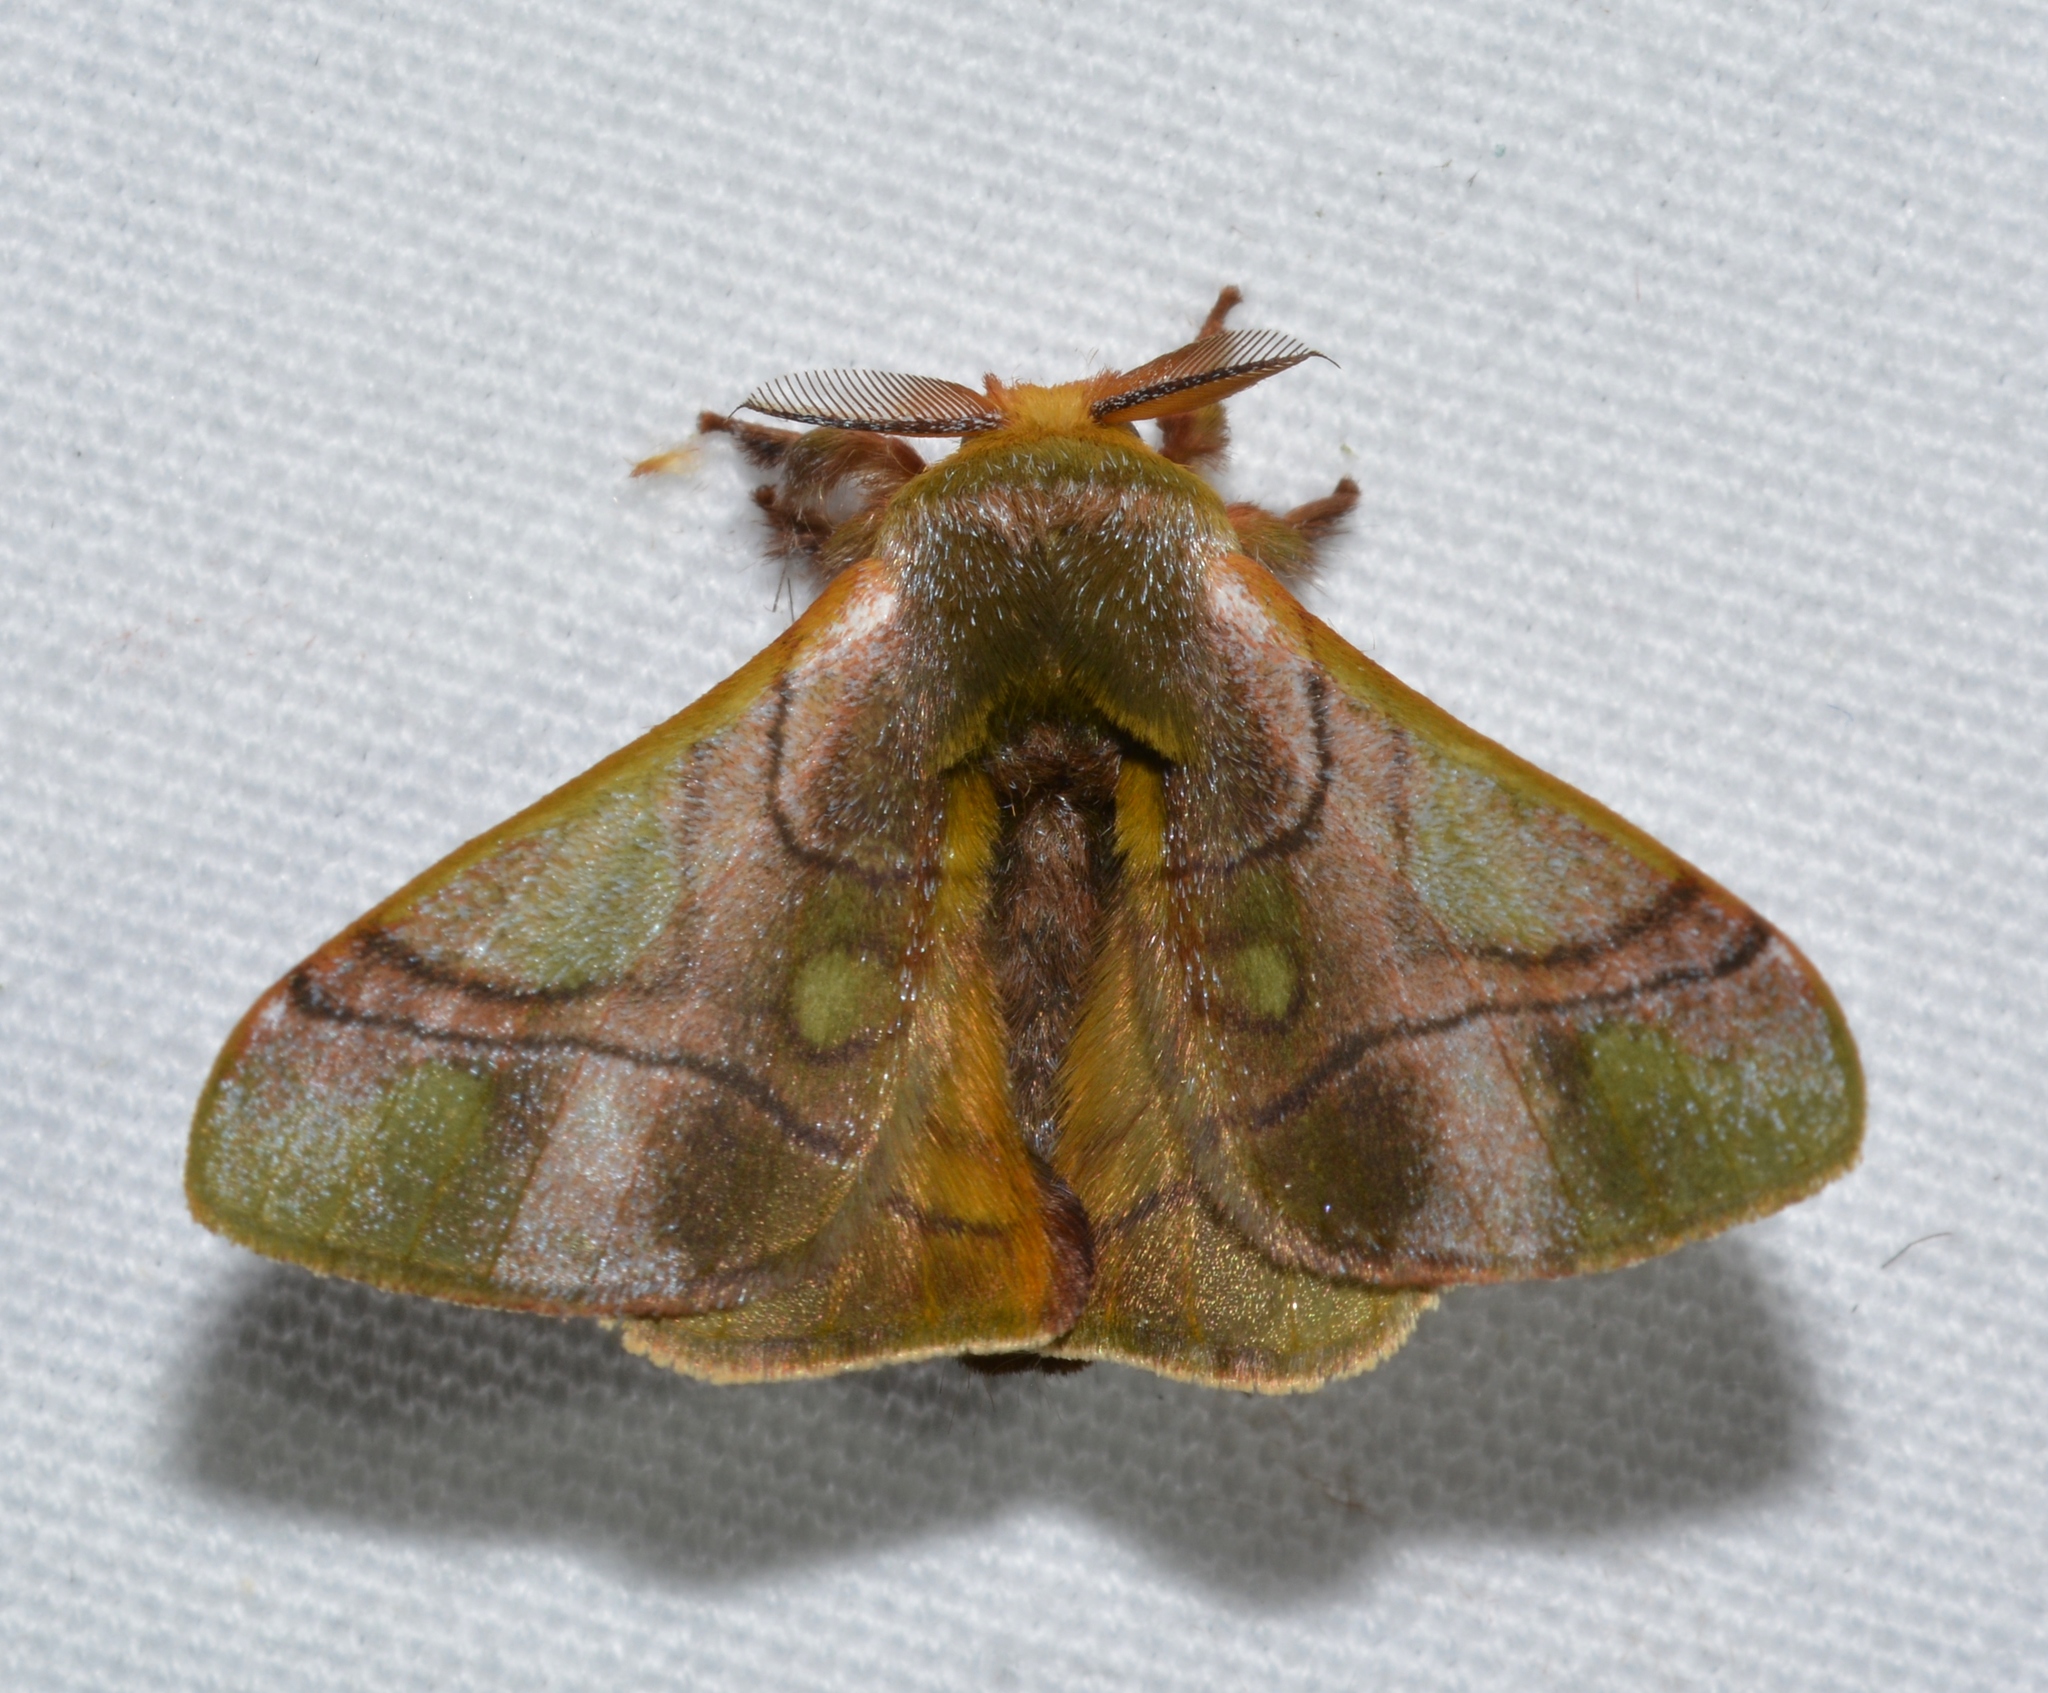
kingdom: Animalia
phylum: Arthropoda
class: Insecta
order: Lepidoptera
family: Bombycidae
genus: Epia
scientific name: Epia casnonia
